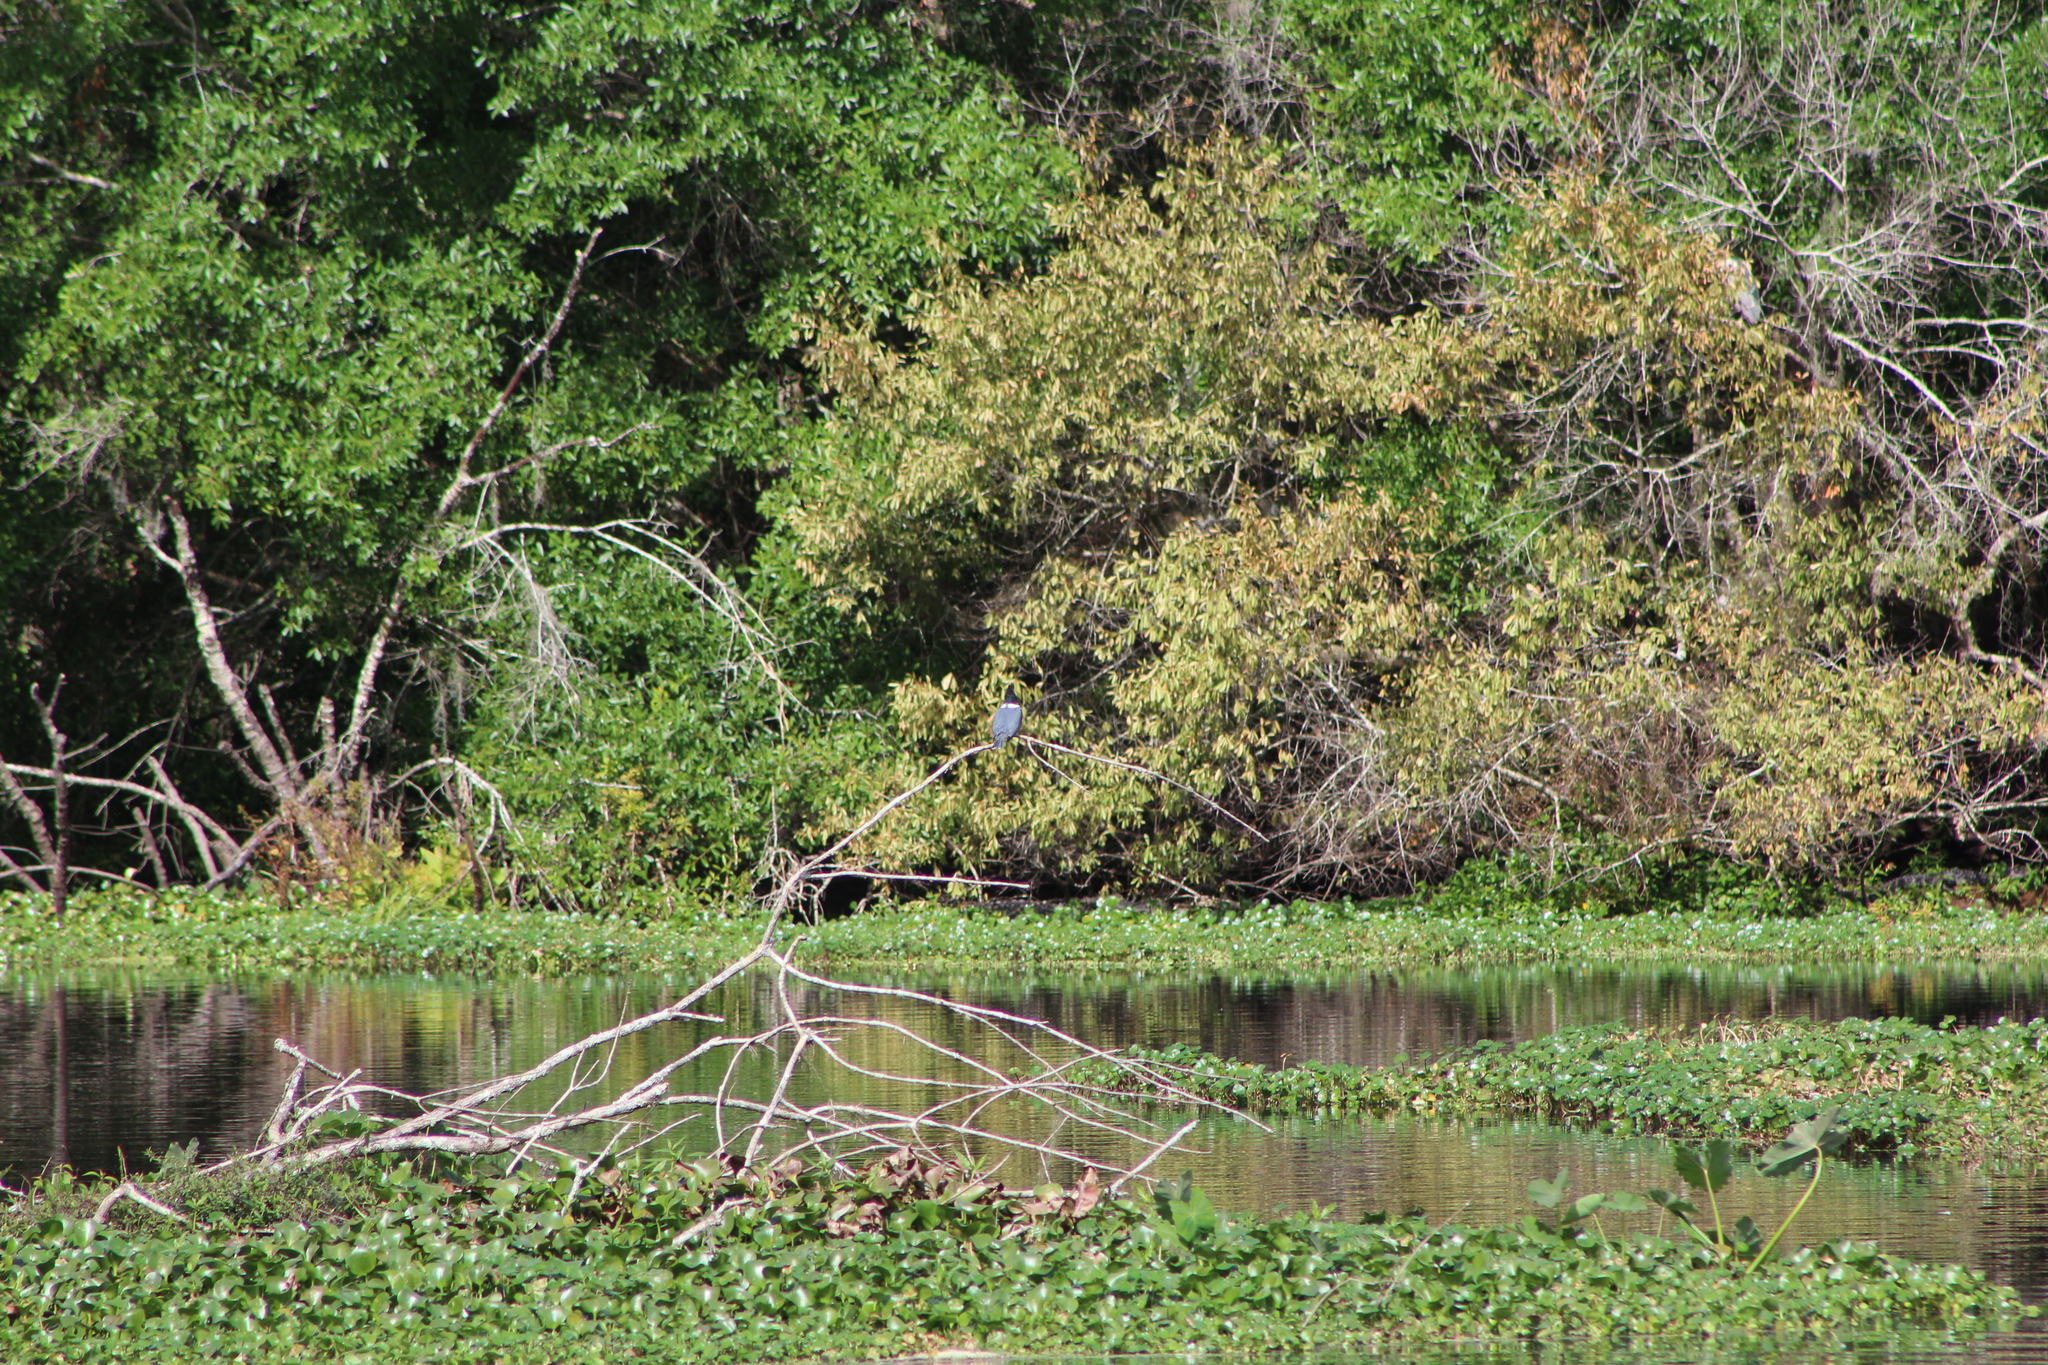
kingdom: Animalia
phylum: Chordata
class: Aves
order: Coraciiformes
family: Alcedinidae
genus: Megaceryle
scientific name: Megaceryle alcyon
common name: Belted kingfisher
